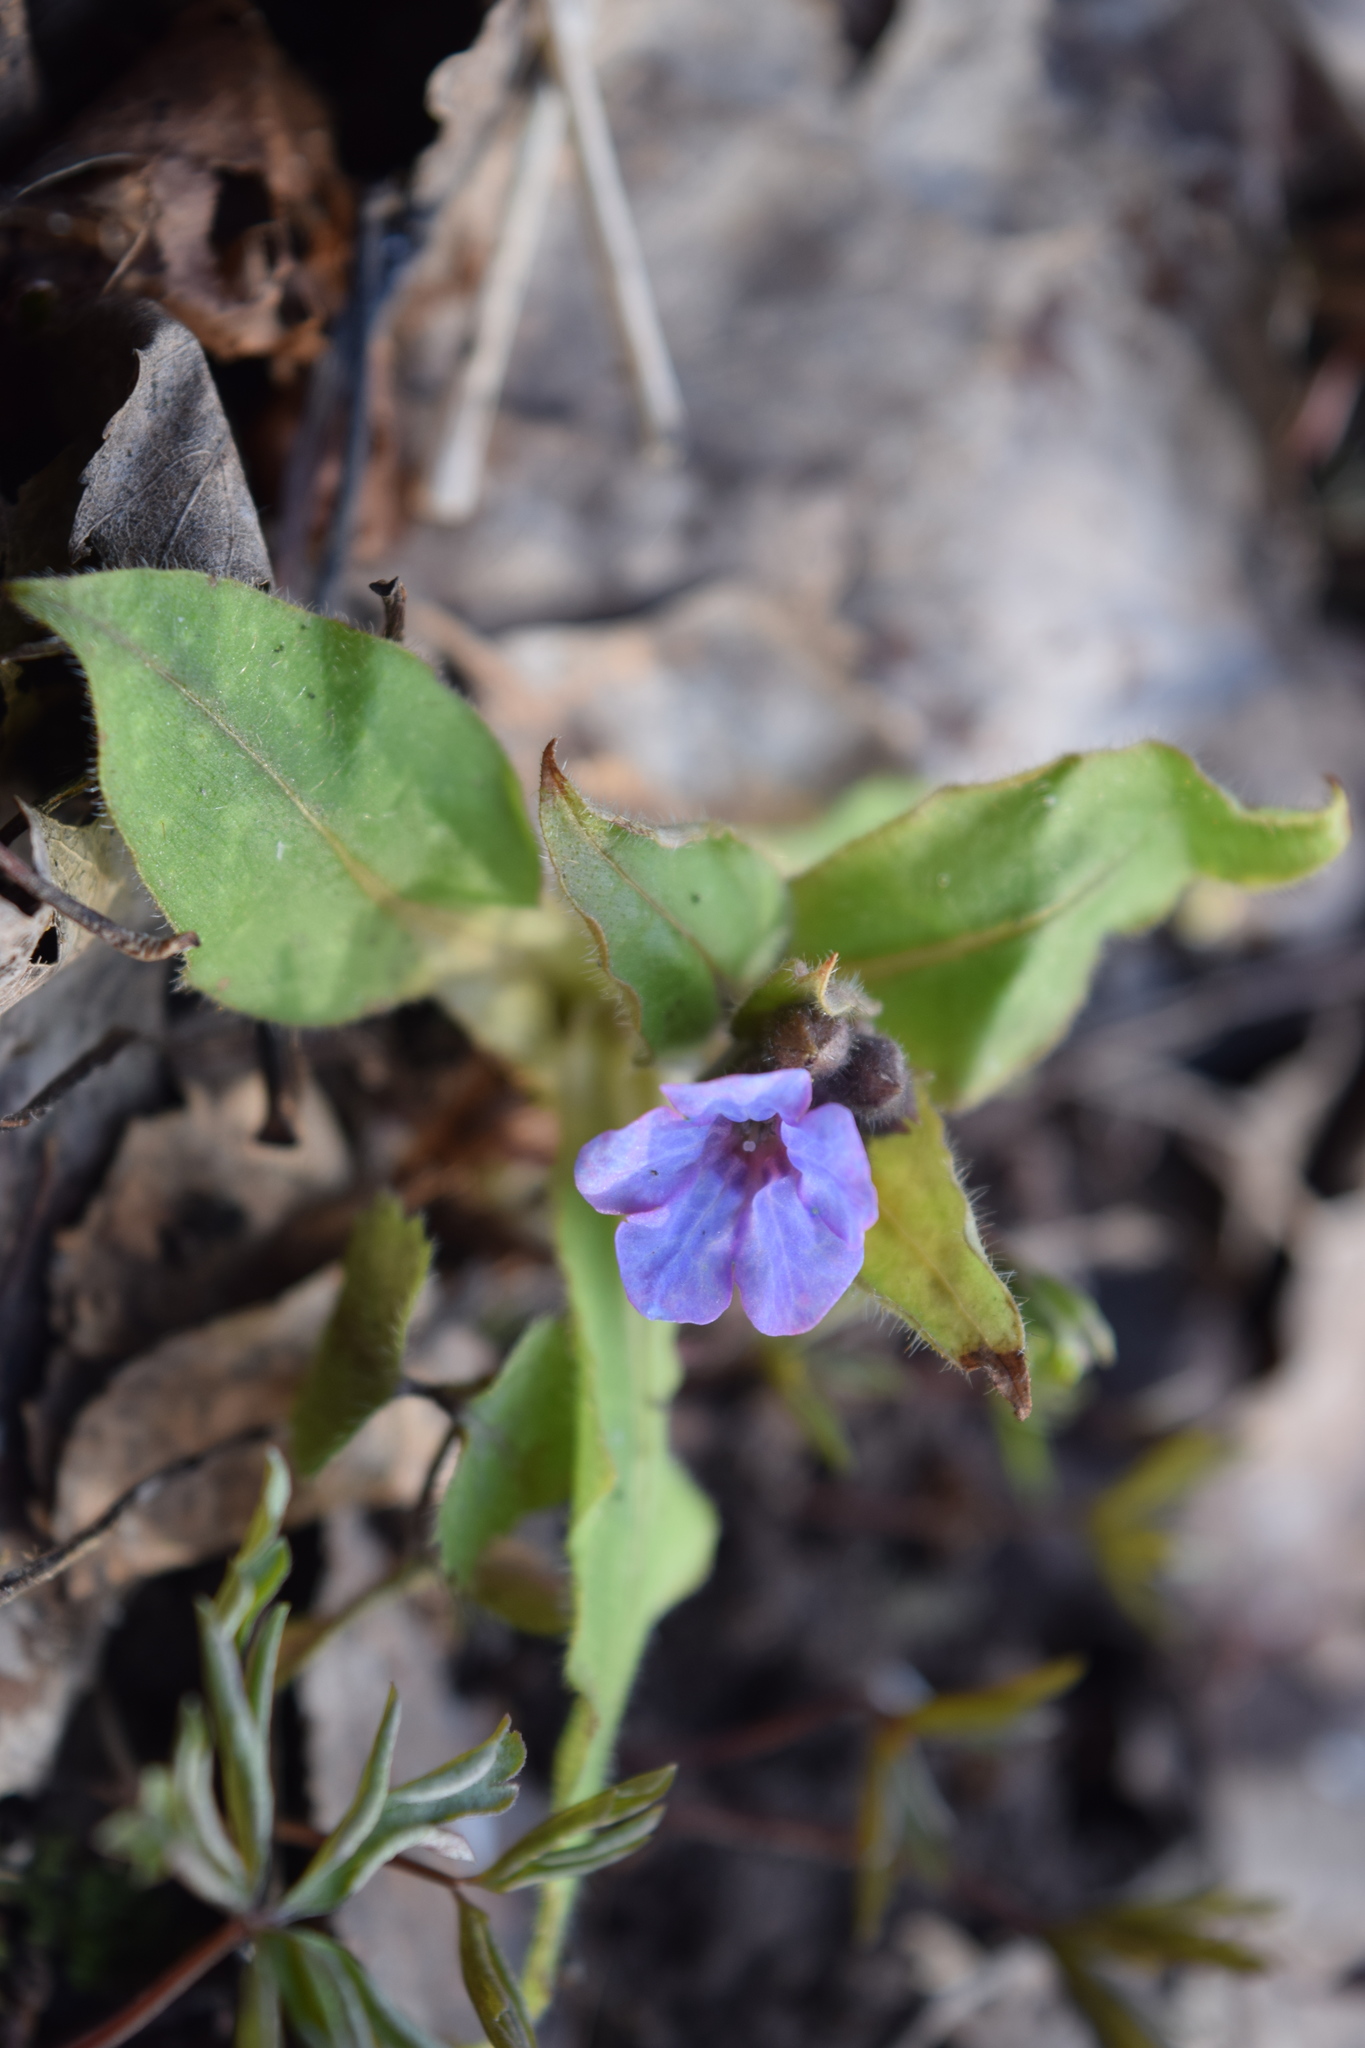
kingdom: Plantae
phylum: Tracheophyta
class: Magnoliopsida
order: Boraginales
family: Boraginaceae
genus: Pulmonaria
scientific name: Pulmonaria obscura
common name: Suffolk lungwort
